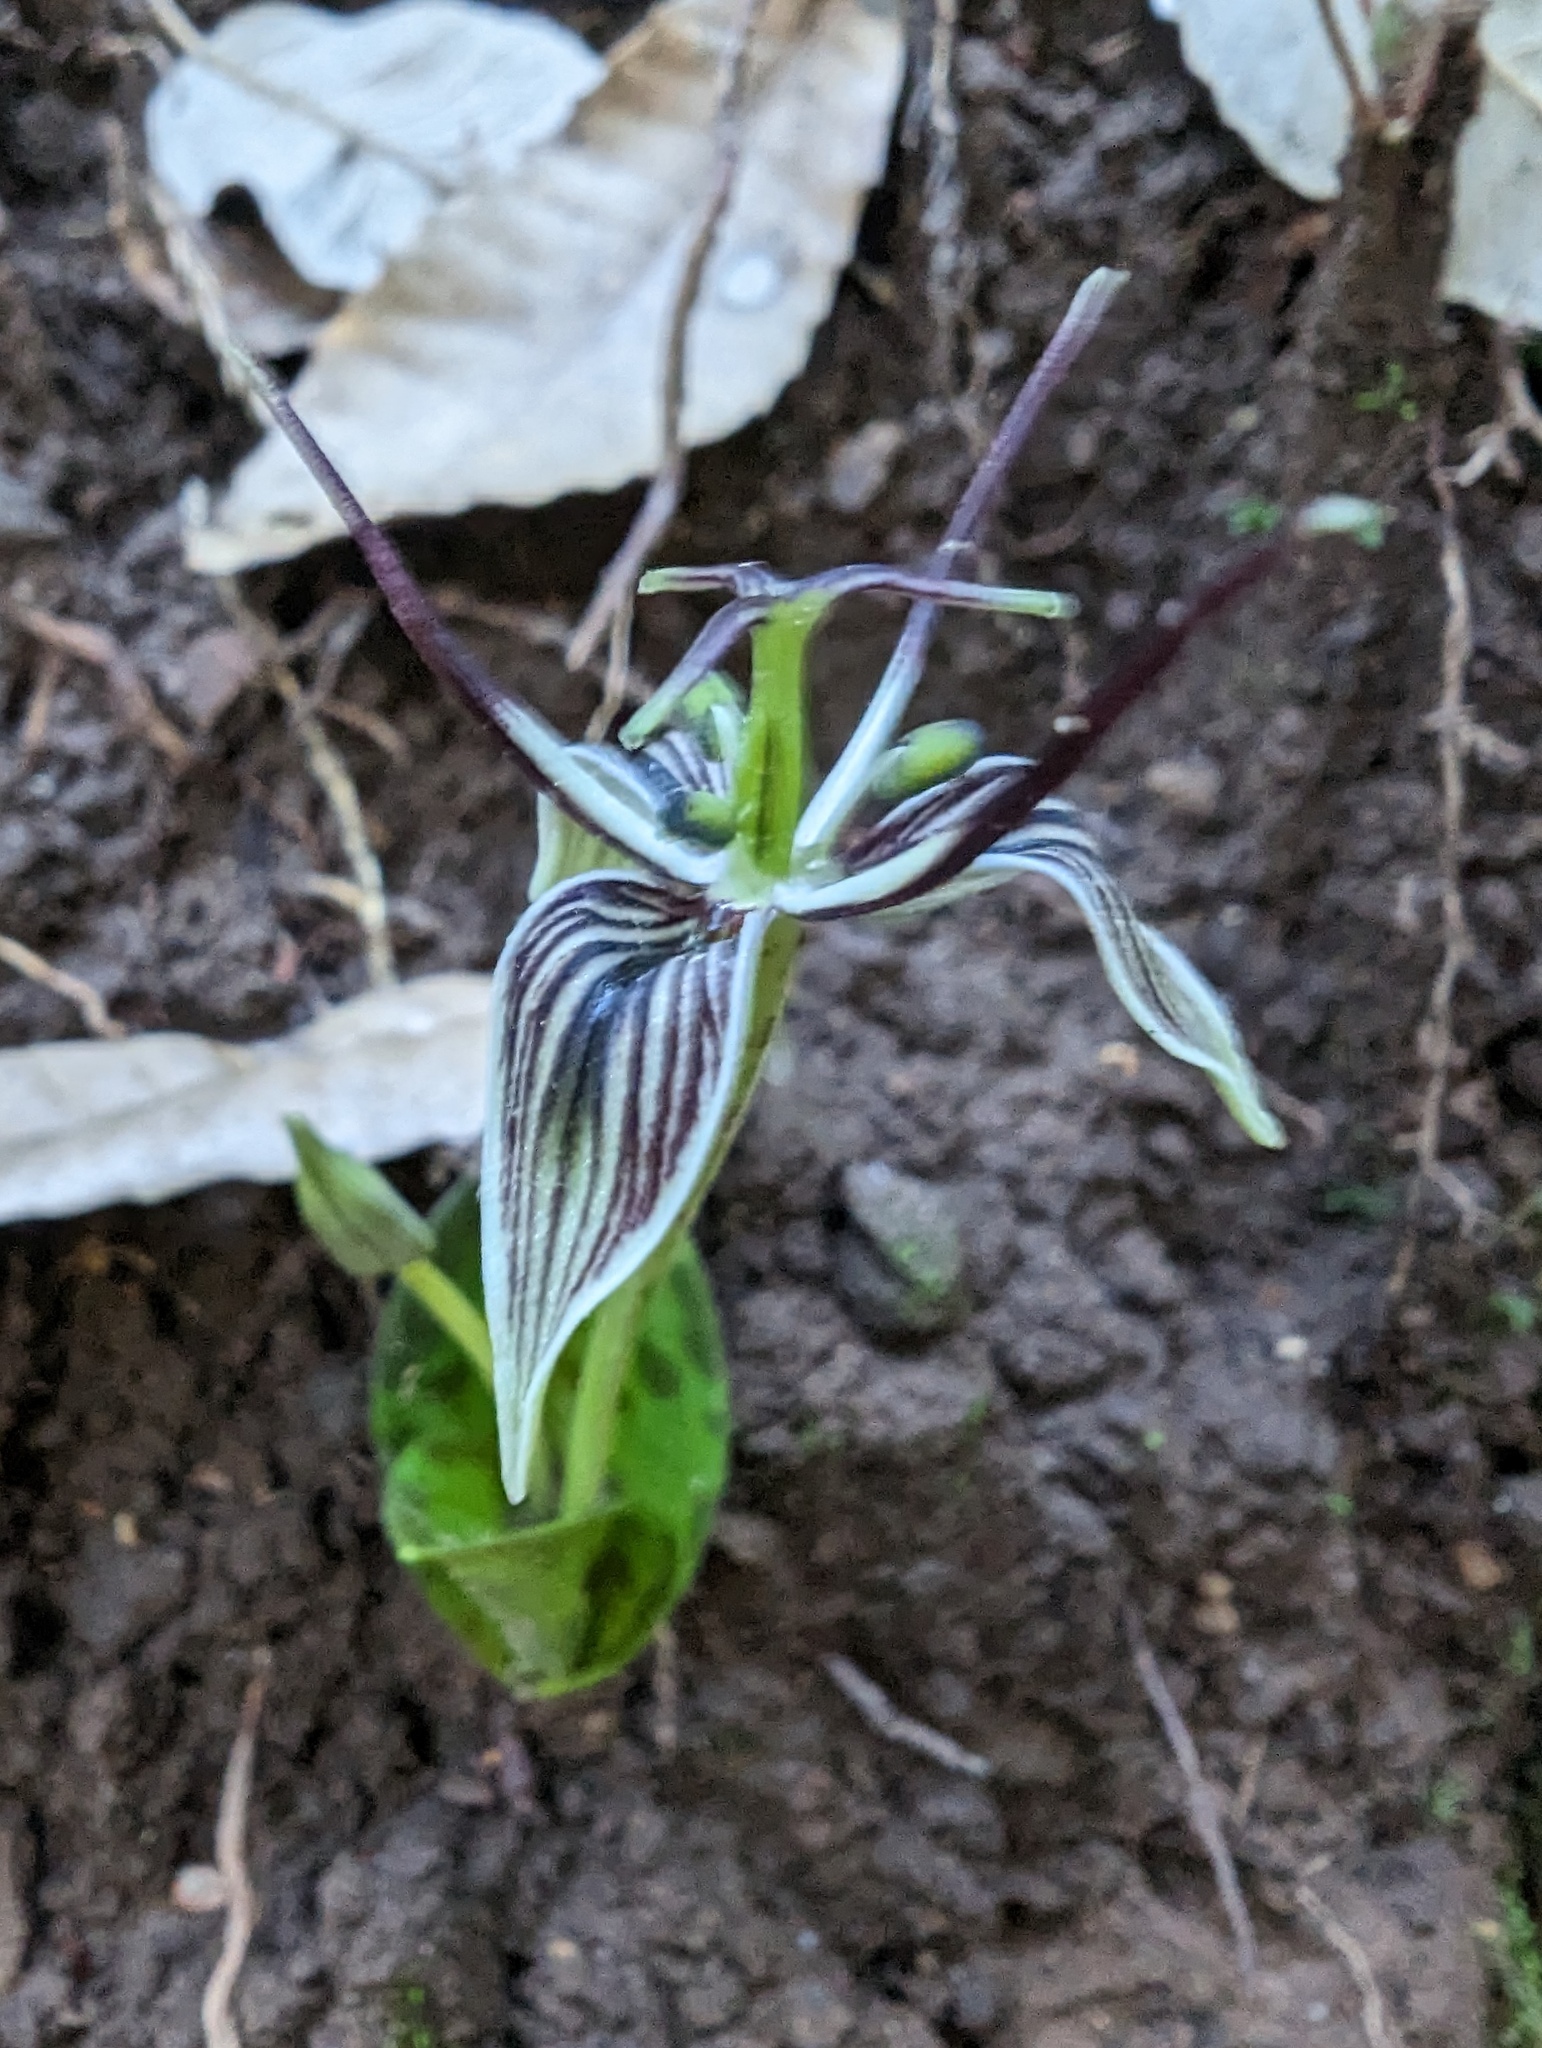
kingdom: Plantae
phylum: Tracheophyta
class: Liliopsida
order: Liliales
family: Liliaceae
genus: Scoliopus
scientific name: Scoliopus bigelovii
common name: Foetid adder's-tongue
